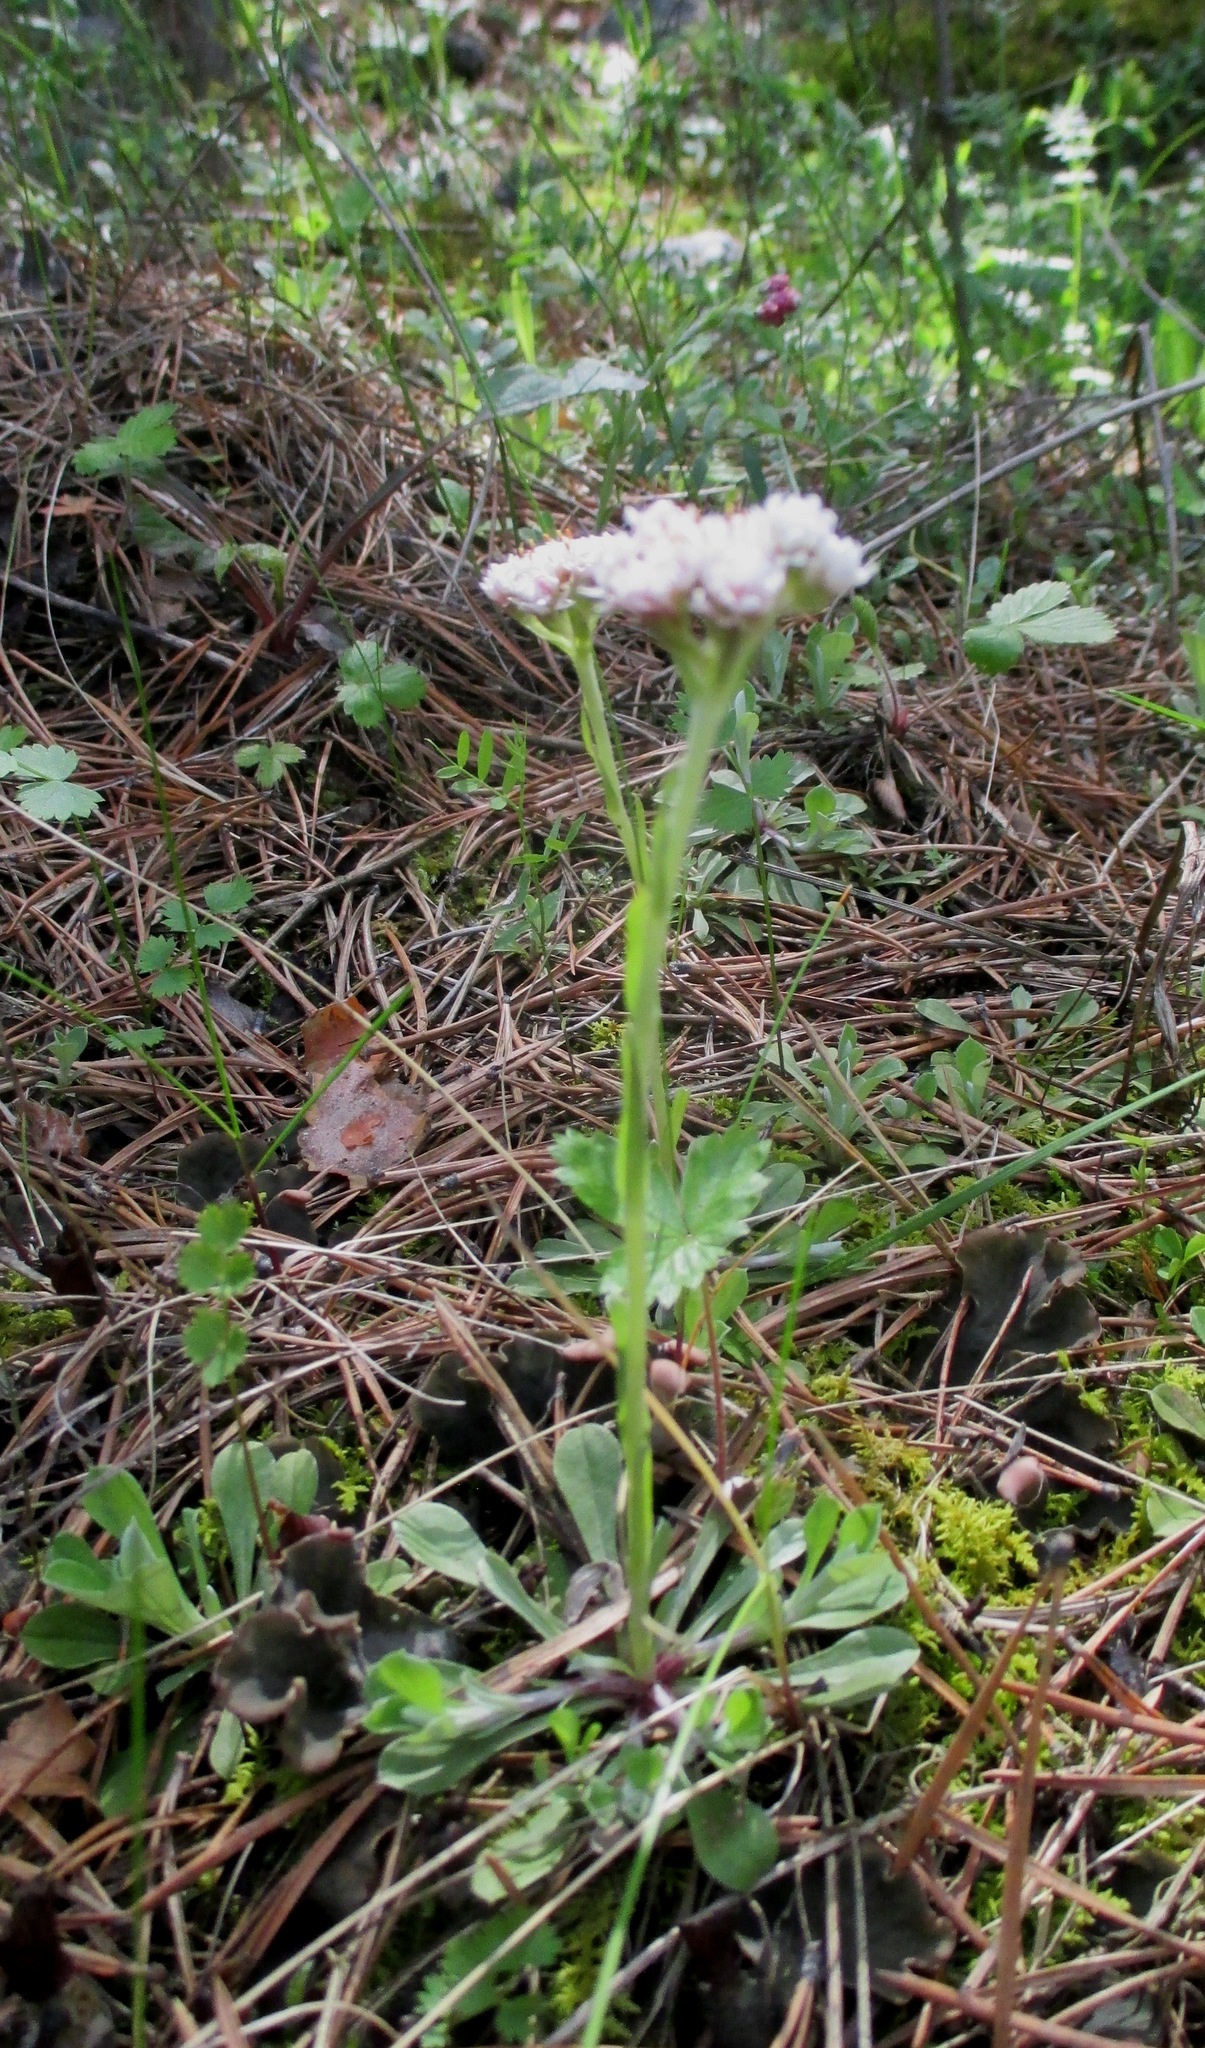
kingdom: Plantae
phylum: Tracheophyta
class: Magnoliopsida
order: Asterales
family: Asteraceae
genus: Antennaria
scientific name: Antennaria dioica
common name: Mountain everlasting
